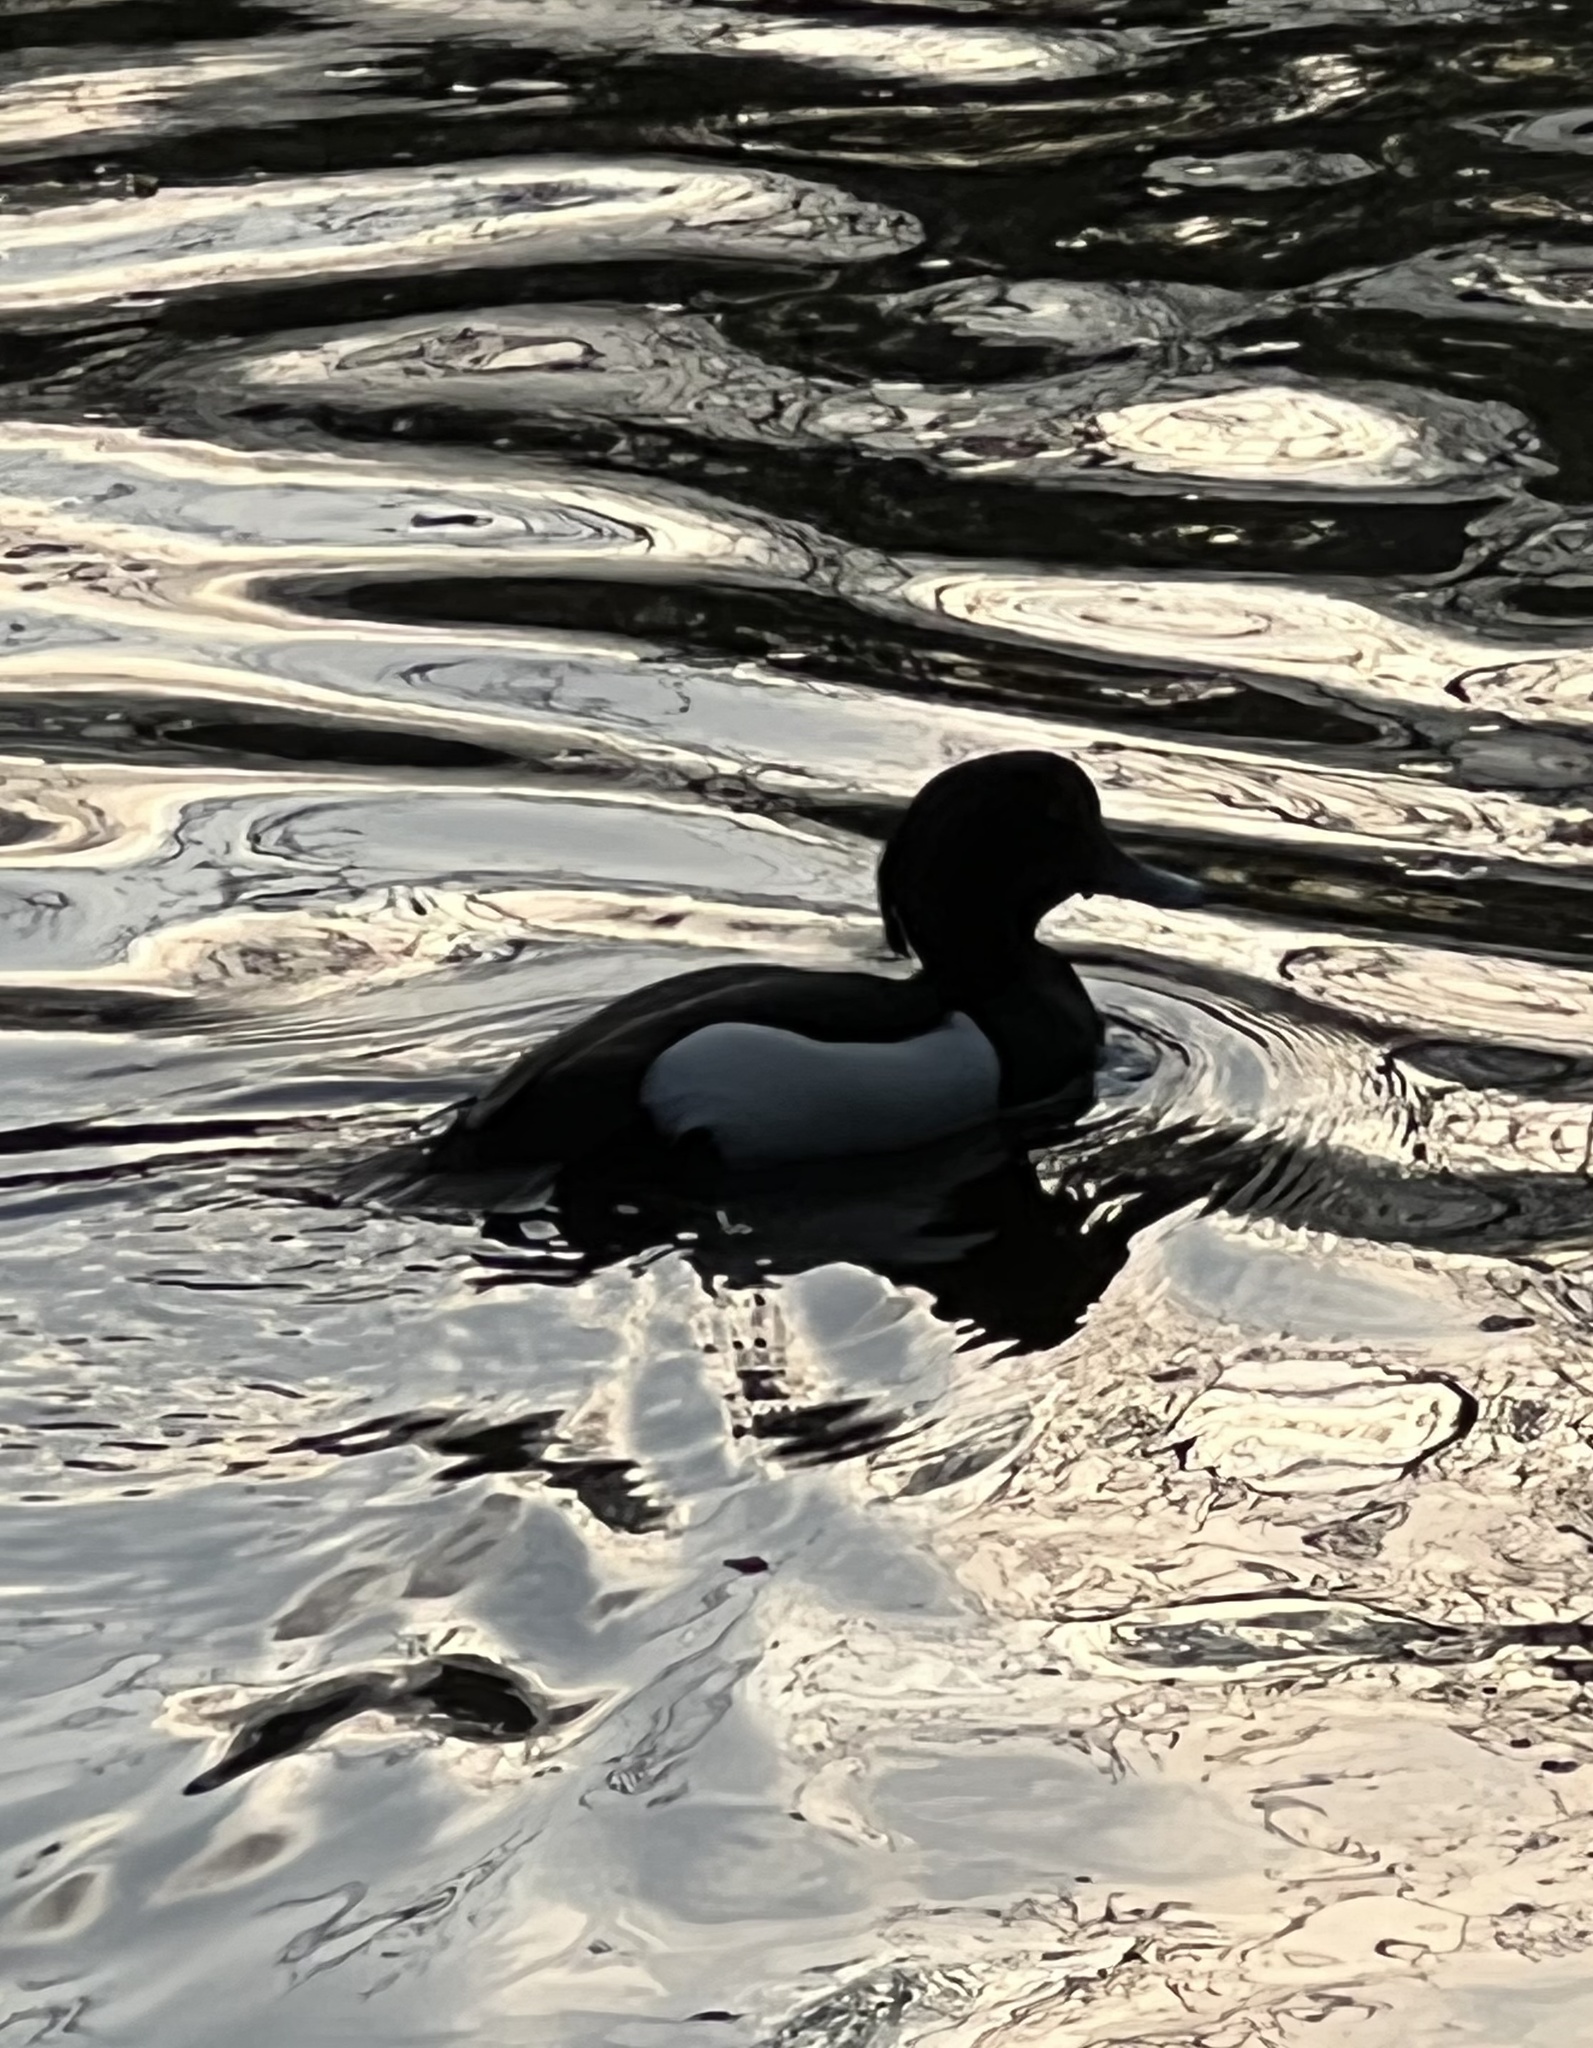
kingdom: Animalia
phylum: Chordata
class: Aves
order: Anseriformes
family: Anatidae
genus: Aythya
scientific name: Aythya fuligula
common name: Tufted duck
